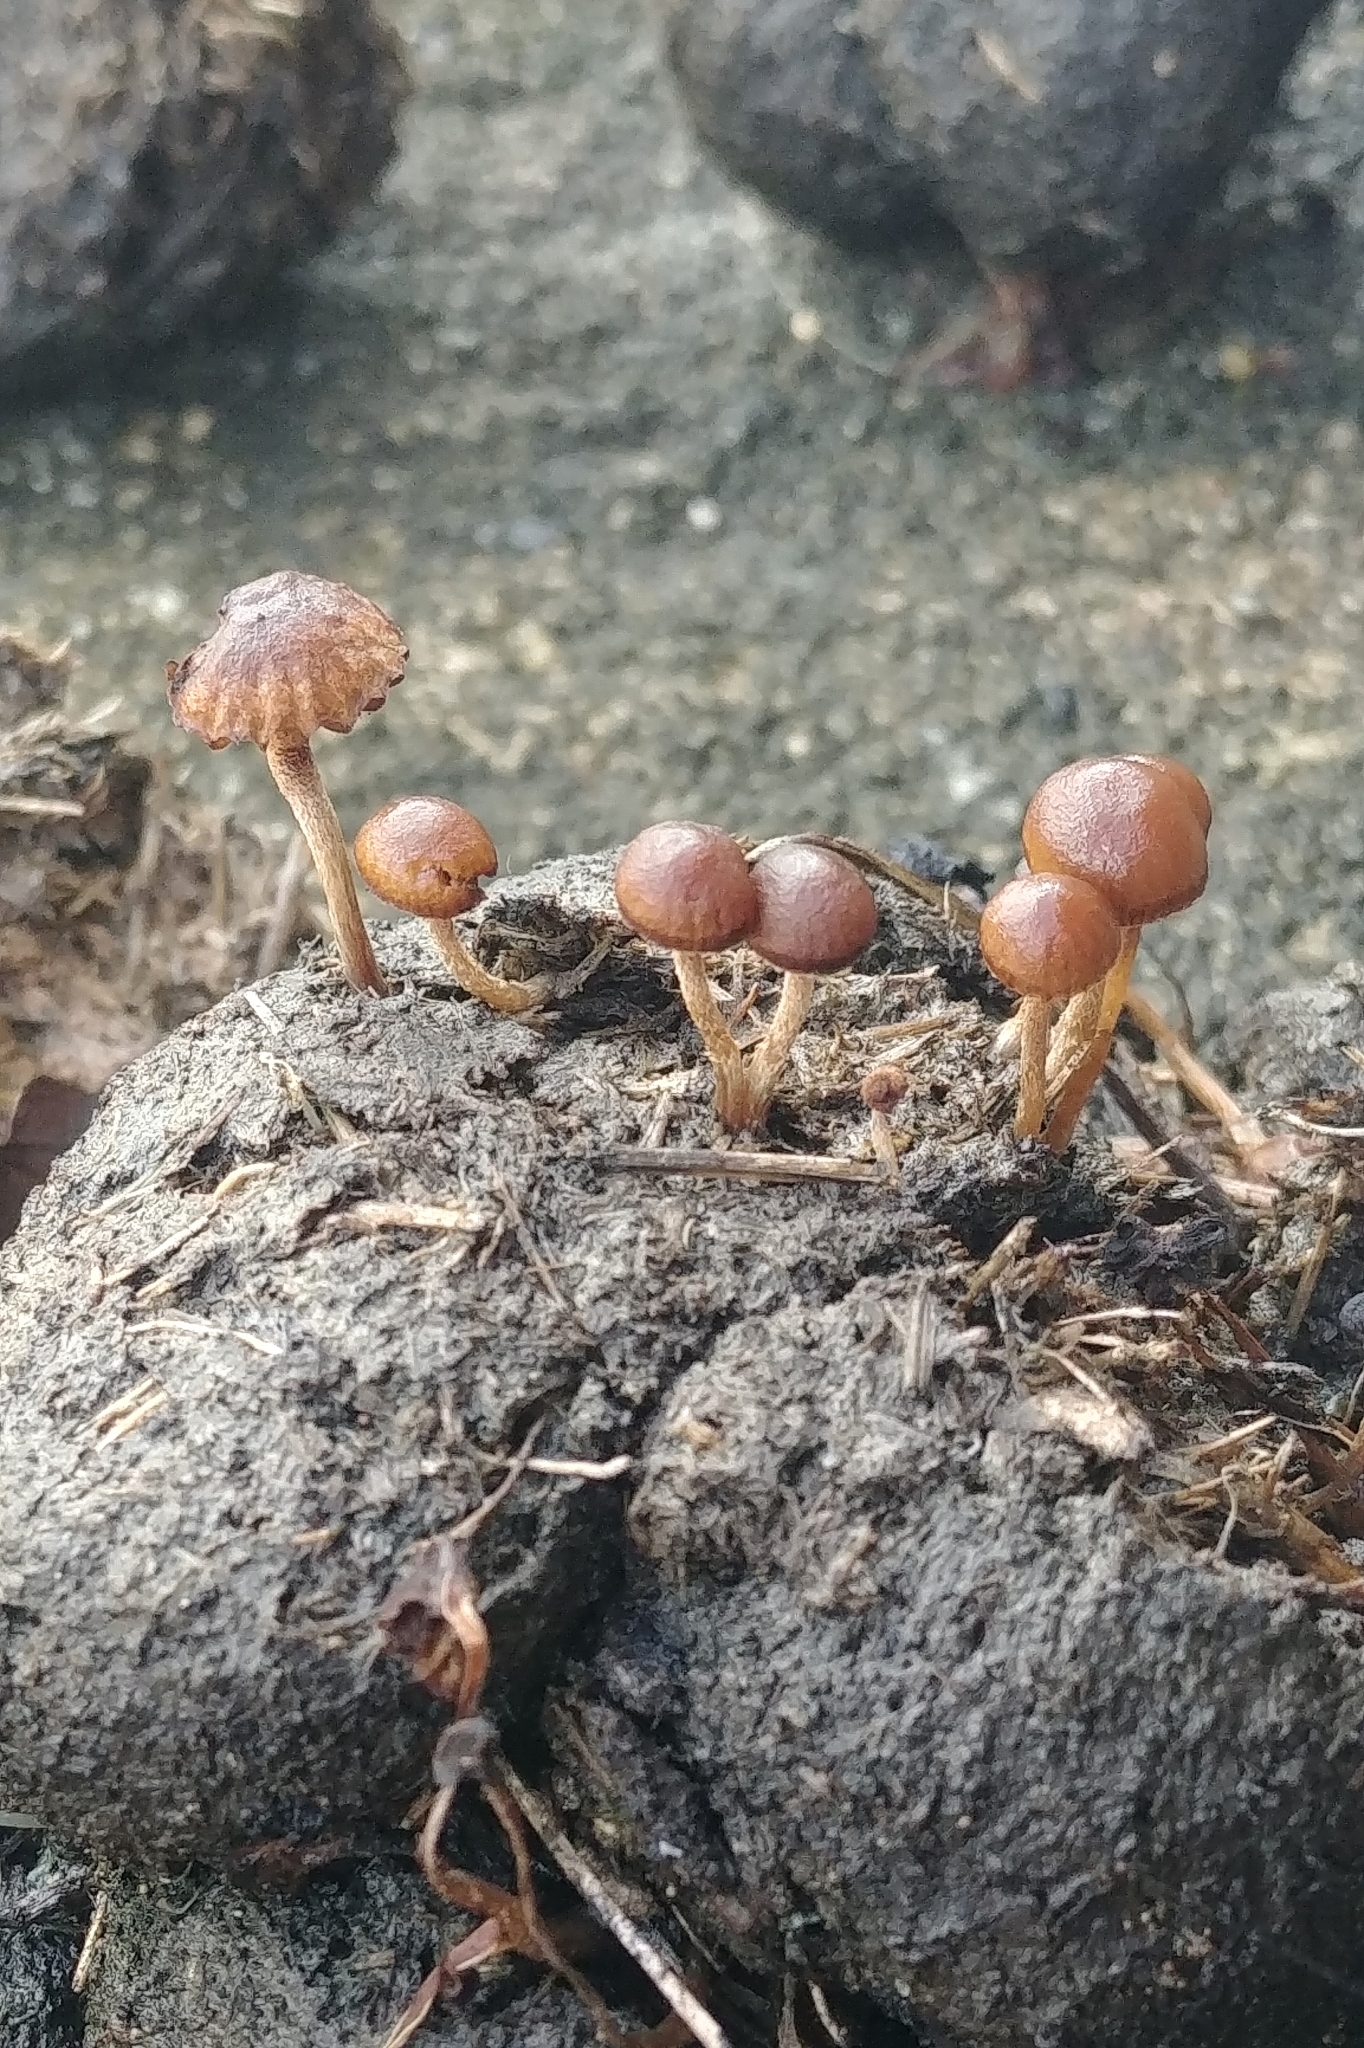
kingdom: Fungi
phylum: Basidiomycota
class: Agaricomycetes
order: Agaricales
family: Strophariaceae
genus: Deconica
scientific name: Deconica coprophila
